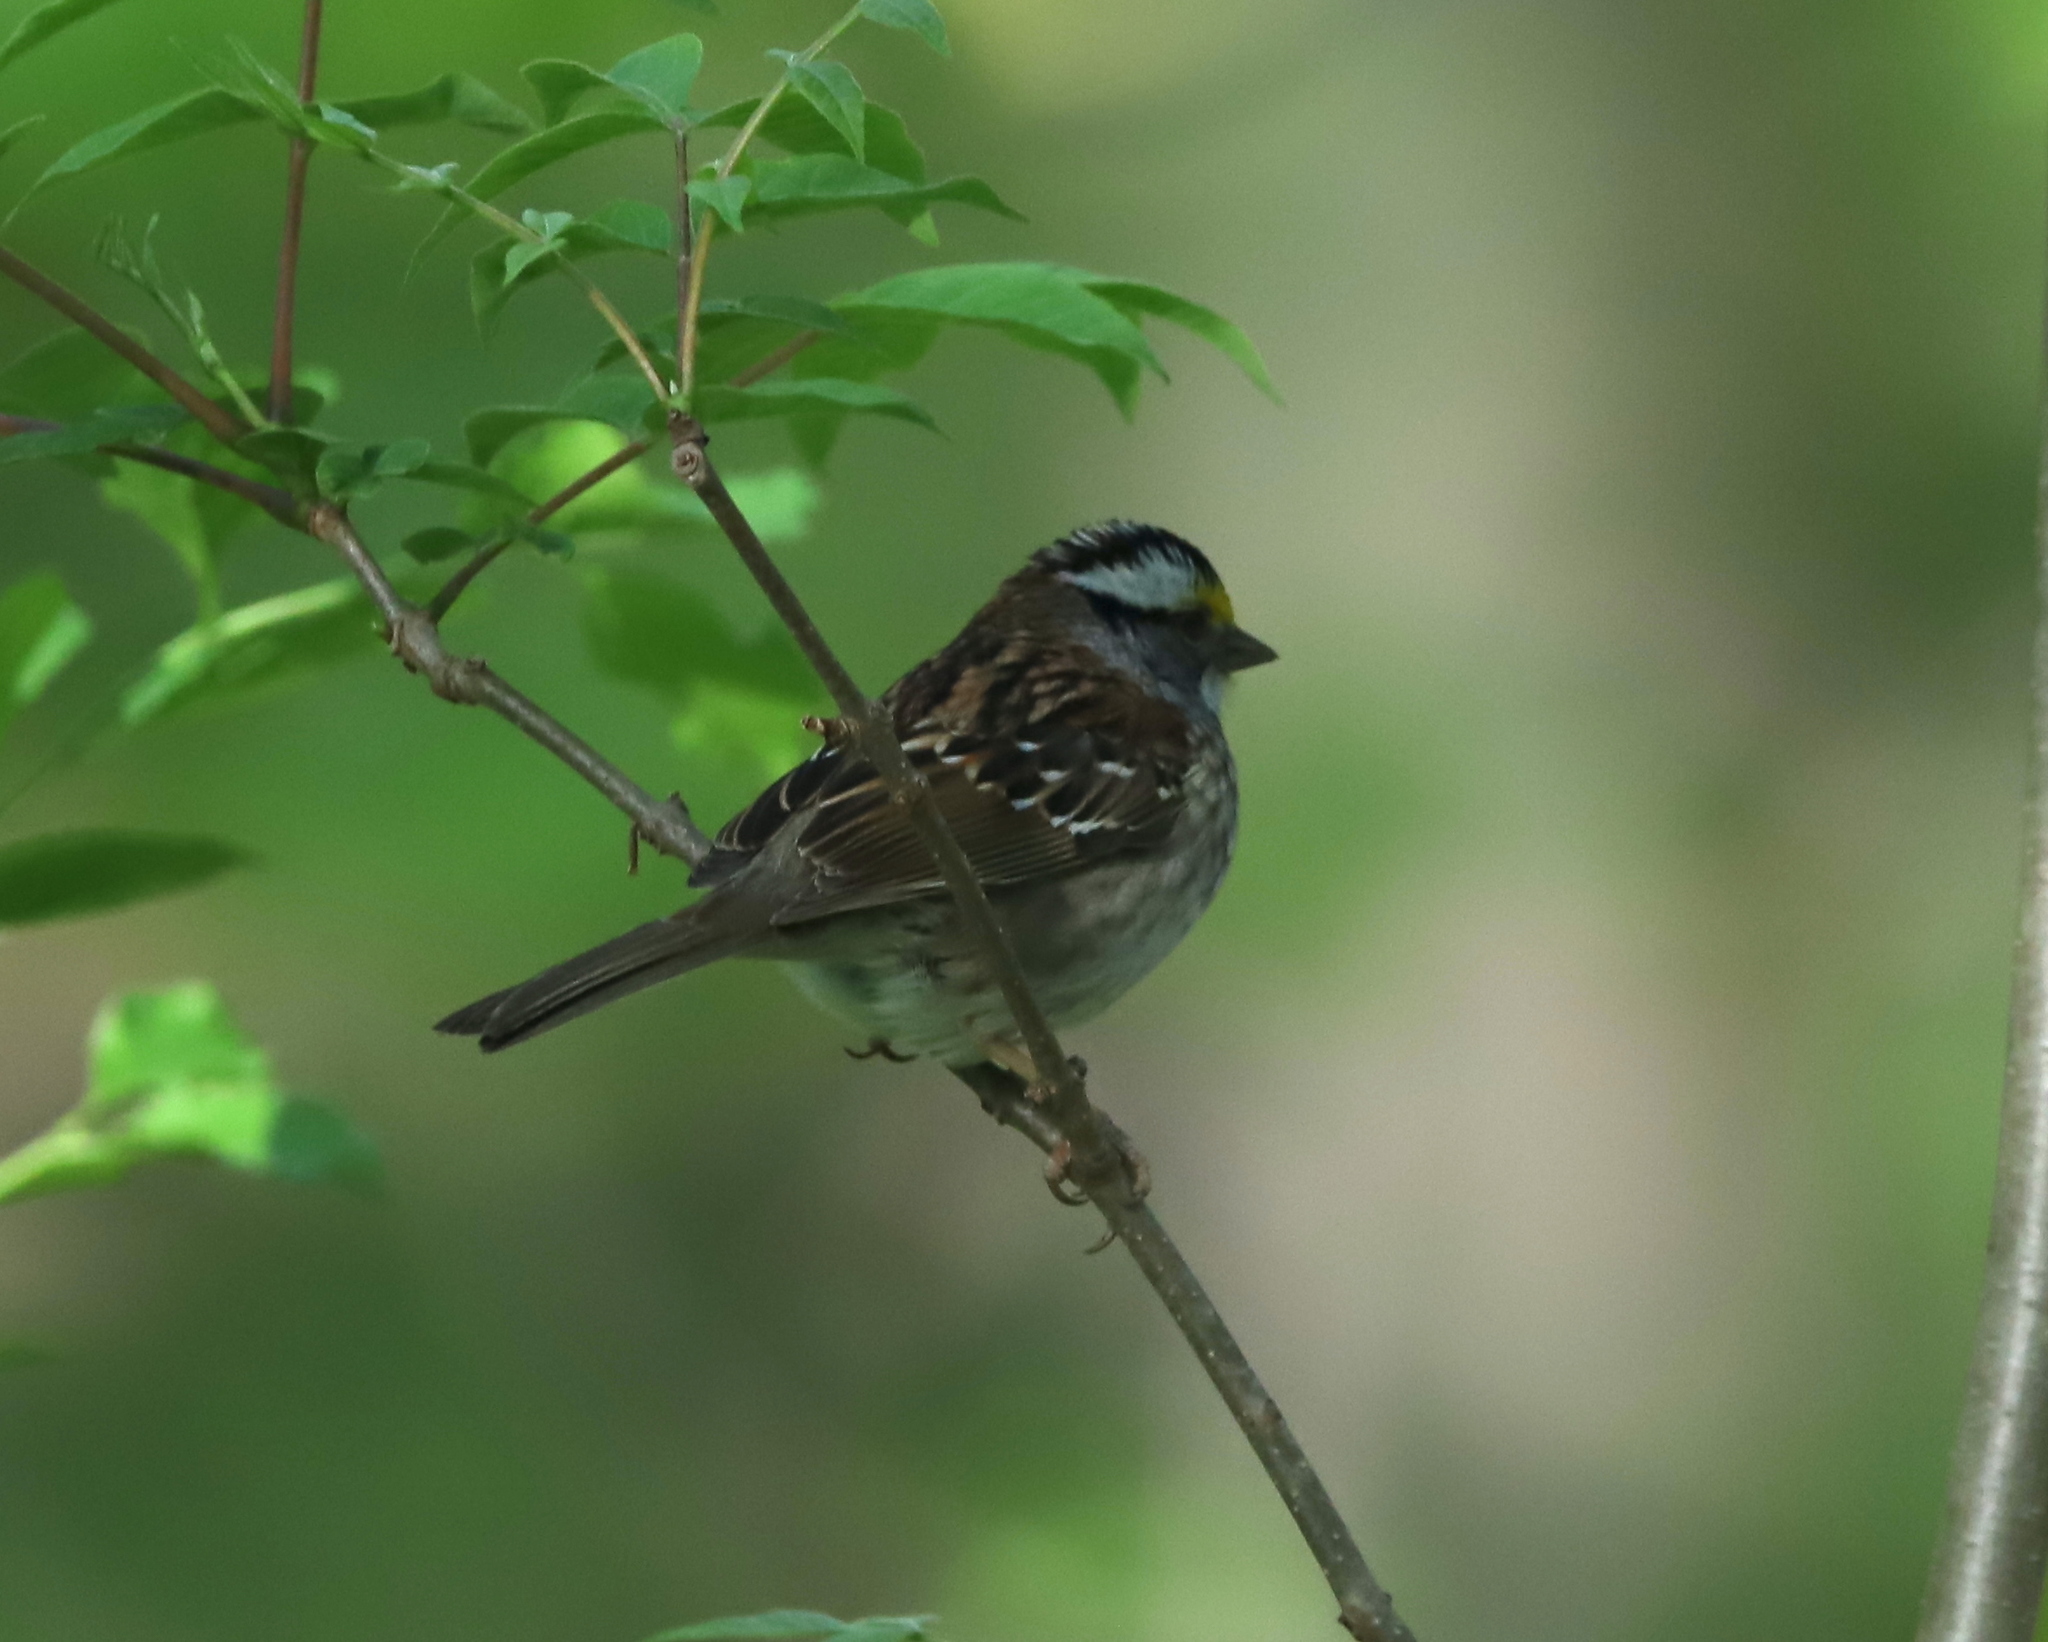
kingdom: Animalia
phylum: Chordata
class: Aves
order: Passeriformes
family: Passerellidae
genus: Zonotrichia
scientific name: Zonotrichia albicollis
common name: White-throated sparrow
